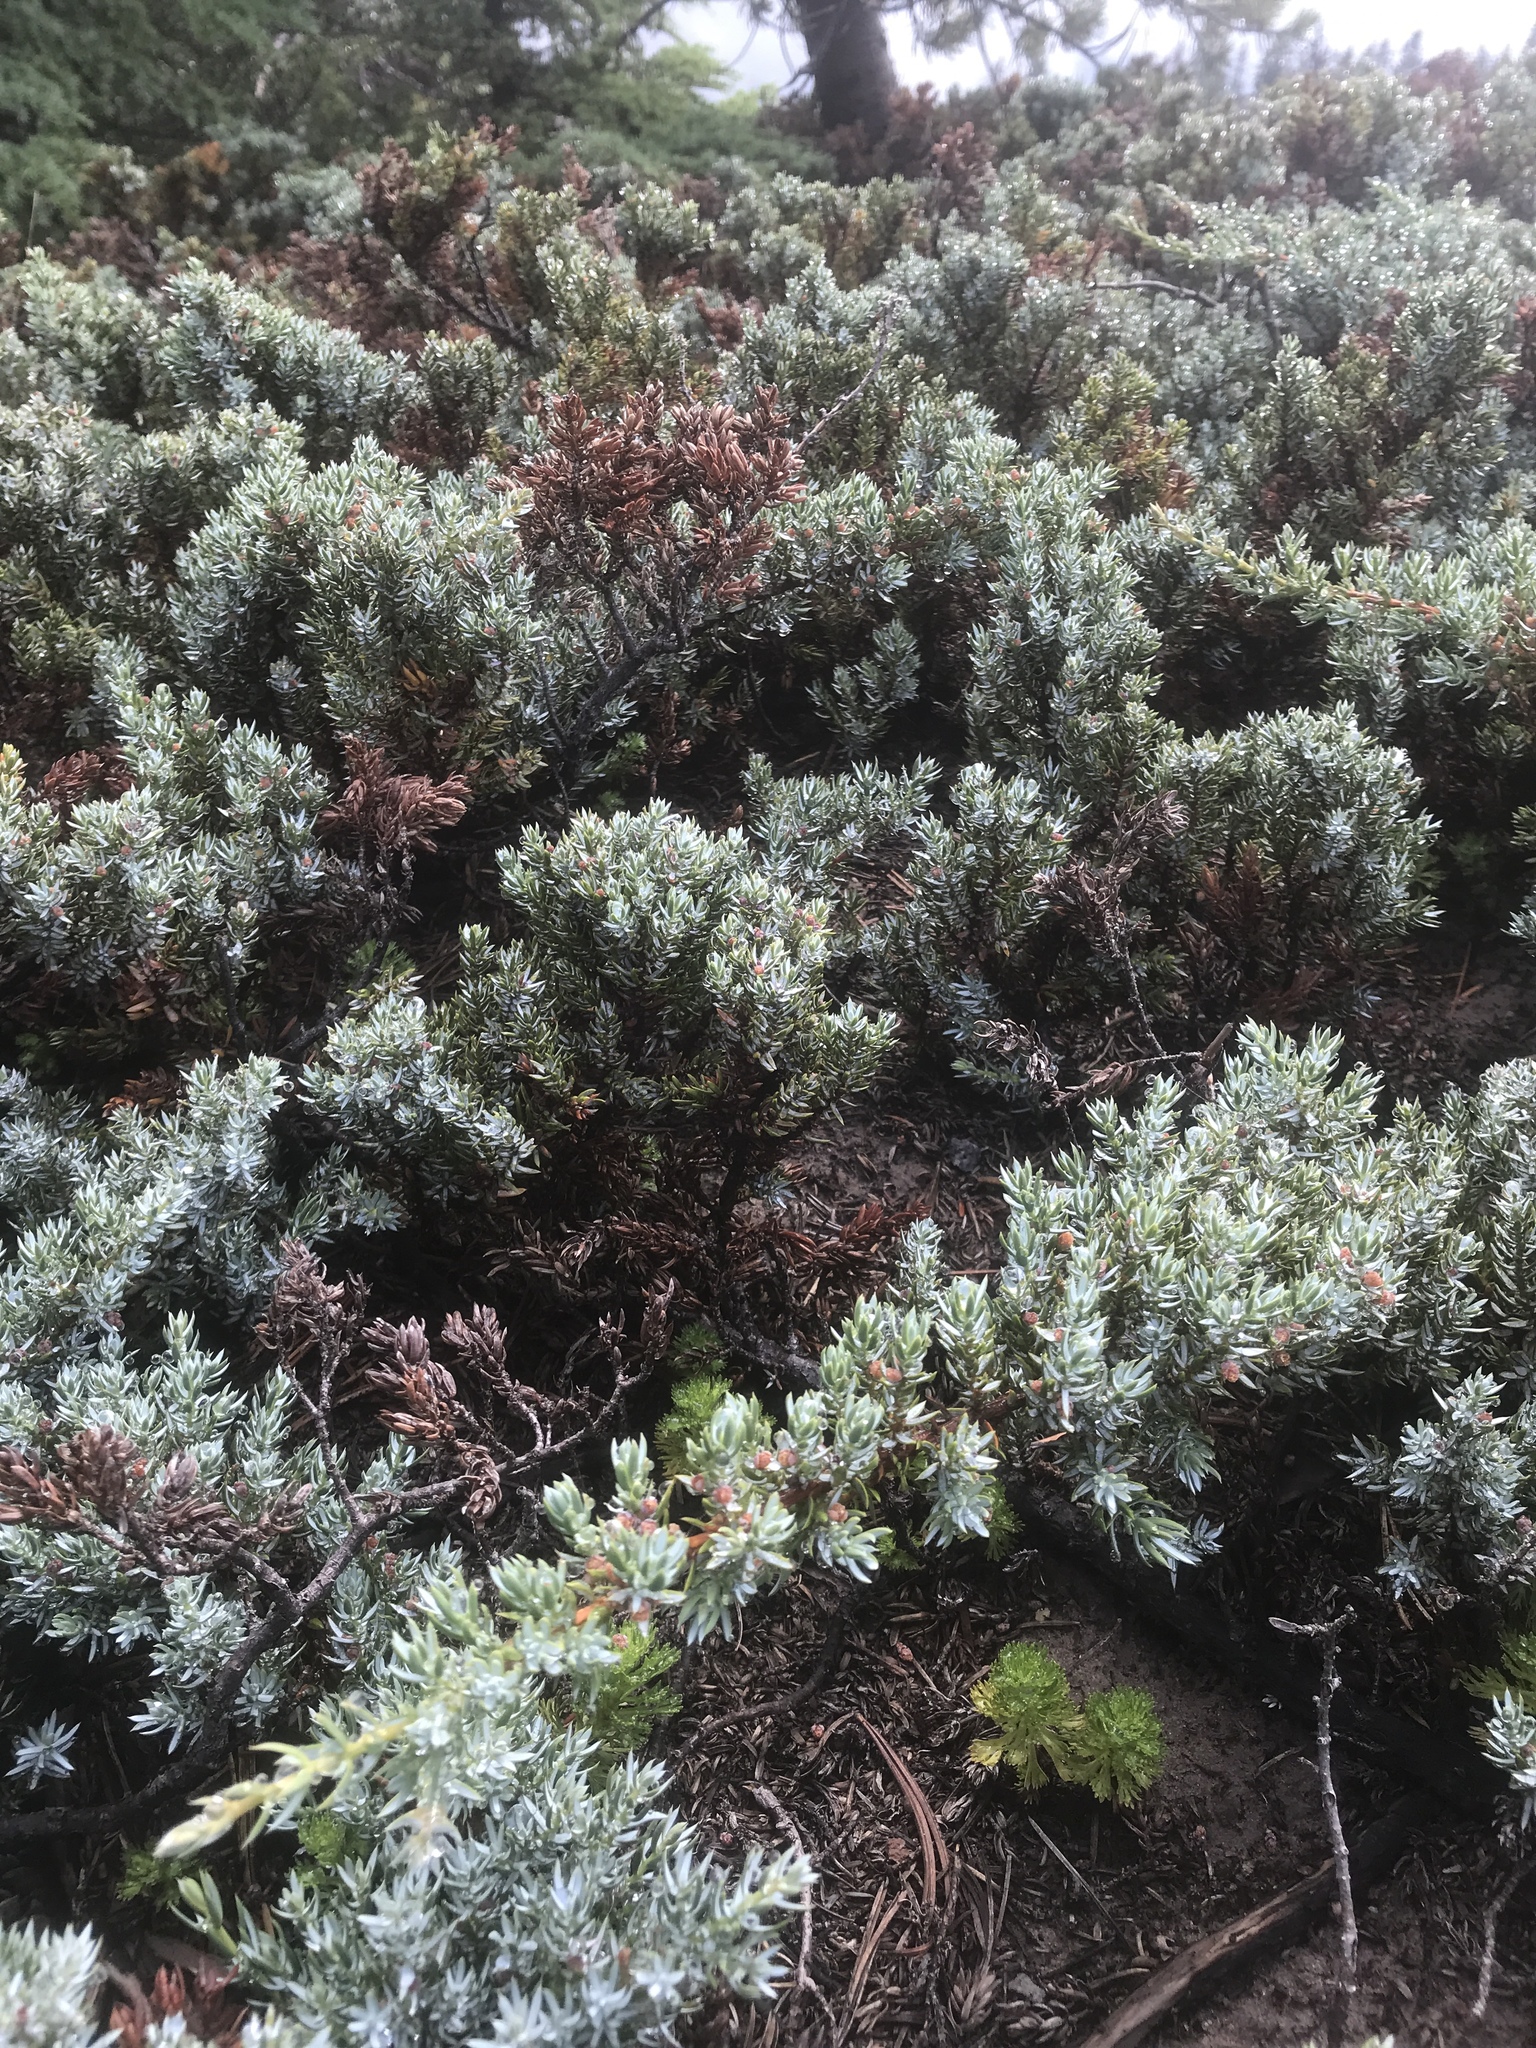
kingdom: Plantae
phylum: Tracheophyta
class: Pinopsida
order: Pinales
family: Cupressaceae
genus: Juniperus
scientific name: Juniperus communis
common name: Common juniper
